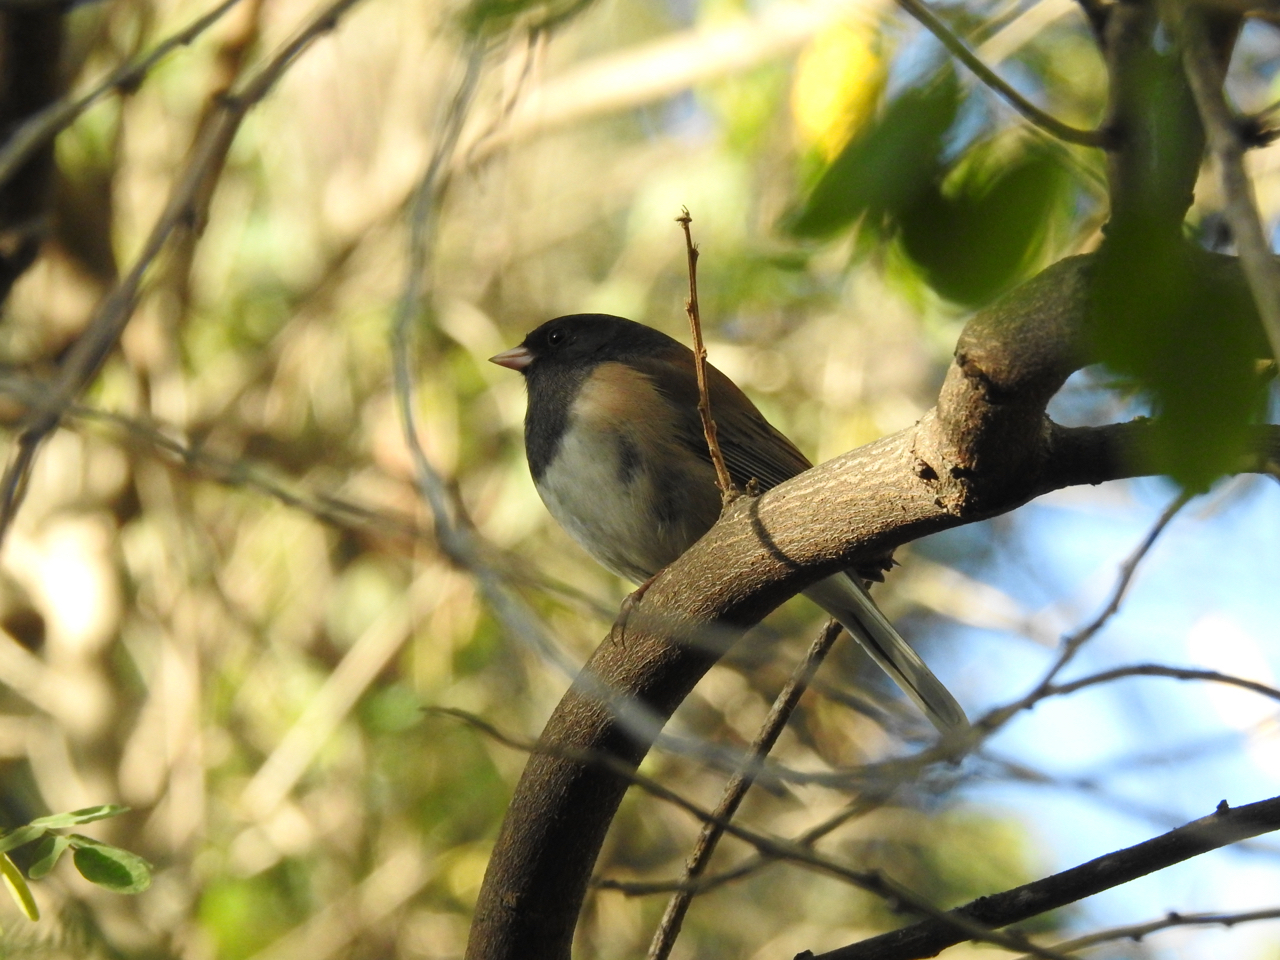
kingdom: Animalia
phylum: Chordata
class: Aves
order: Passeriformes
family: Passerellidae
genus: Junco
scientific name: Junco hyemalis
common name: Dark-eyed junco
